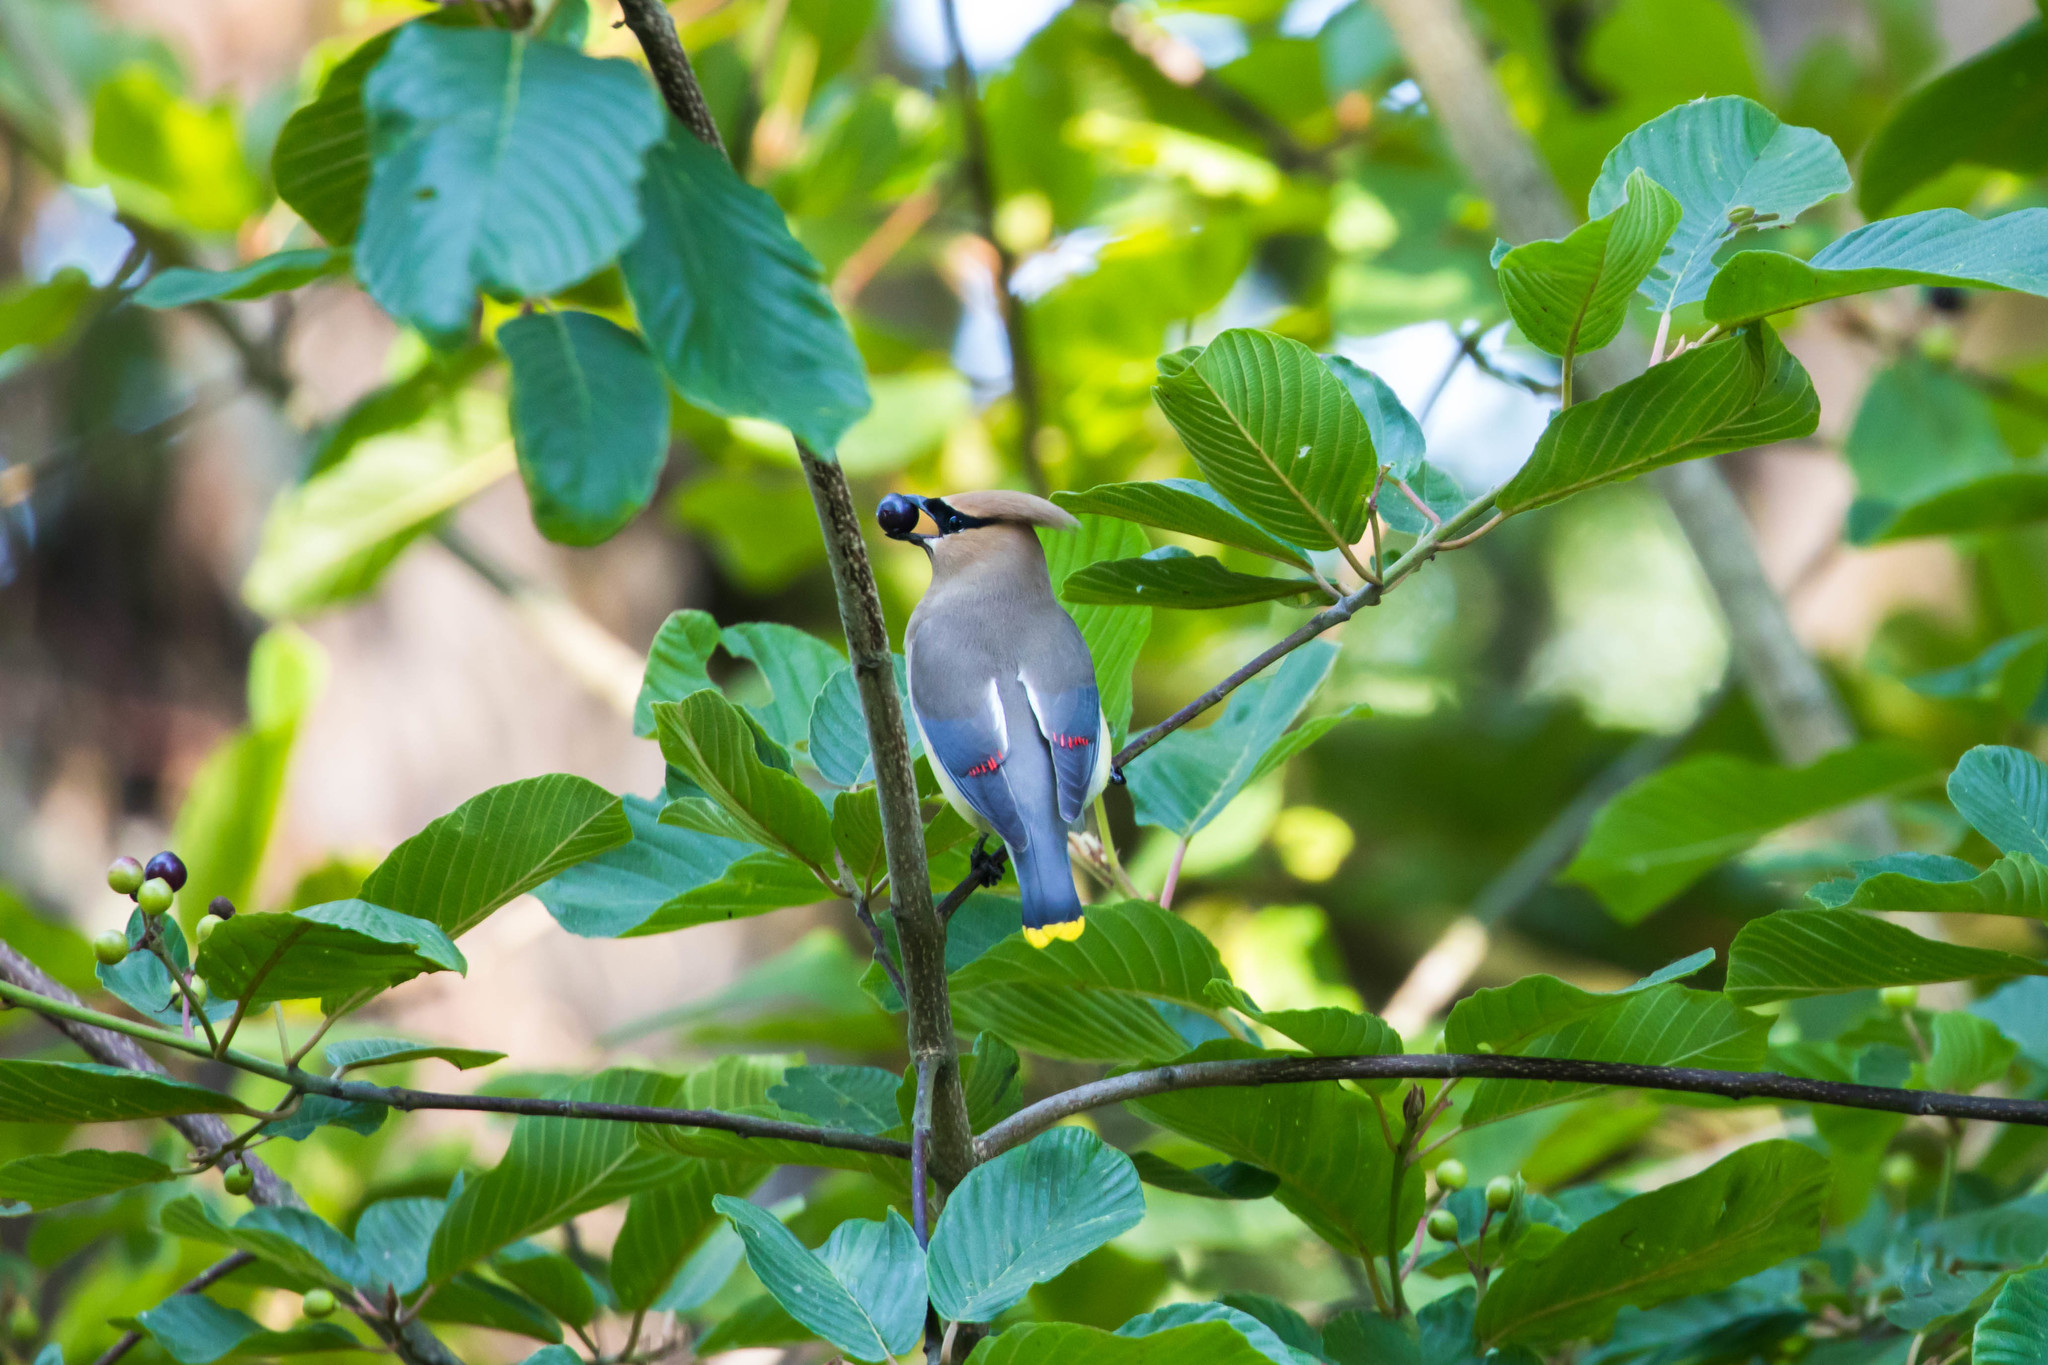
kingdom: Animalia
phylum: Chordata
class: Aves
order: Passeriformes
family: Bombycillidae
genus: Bombycilla
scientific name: Bombycilla cedrorum
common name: Cedar waxwing
